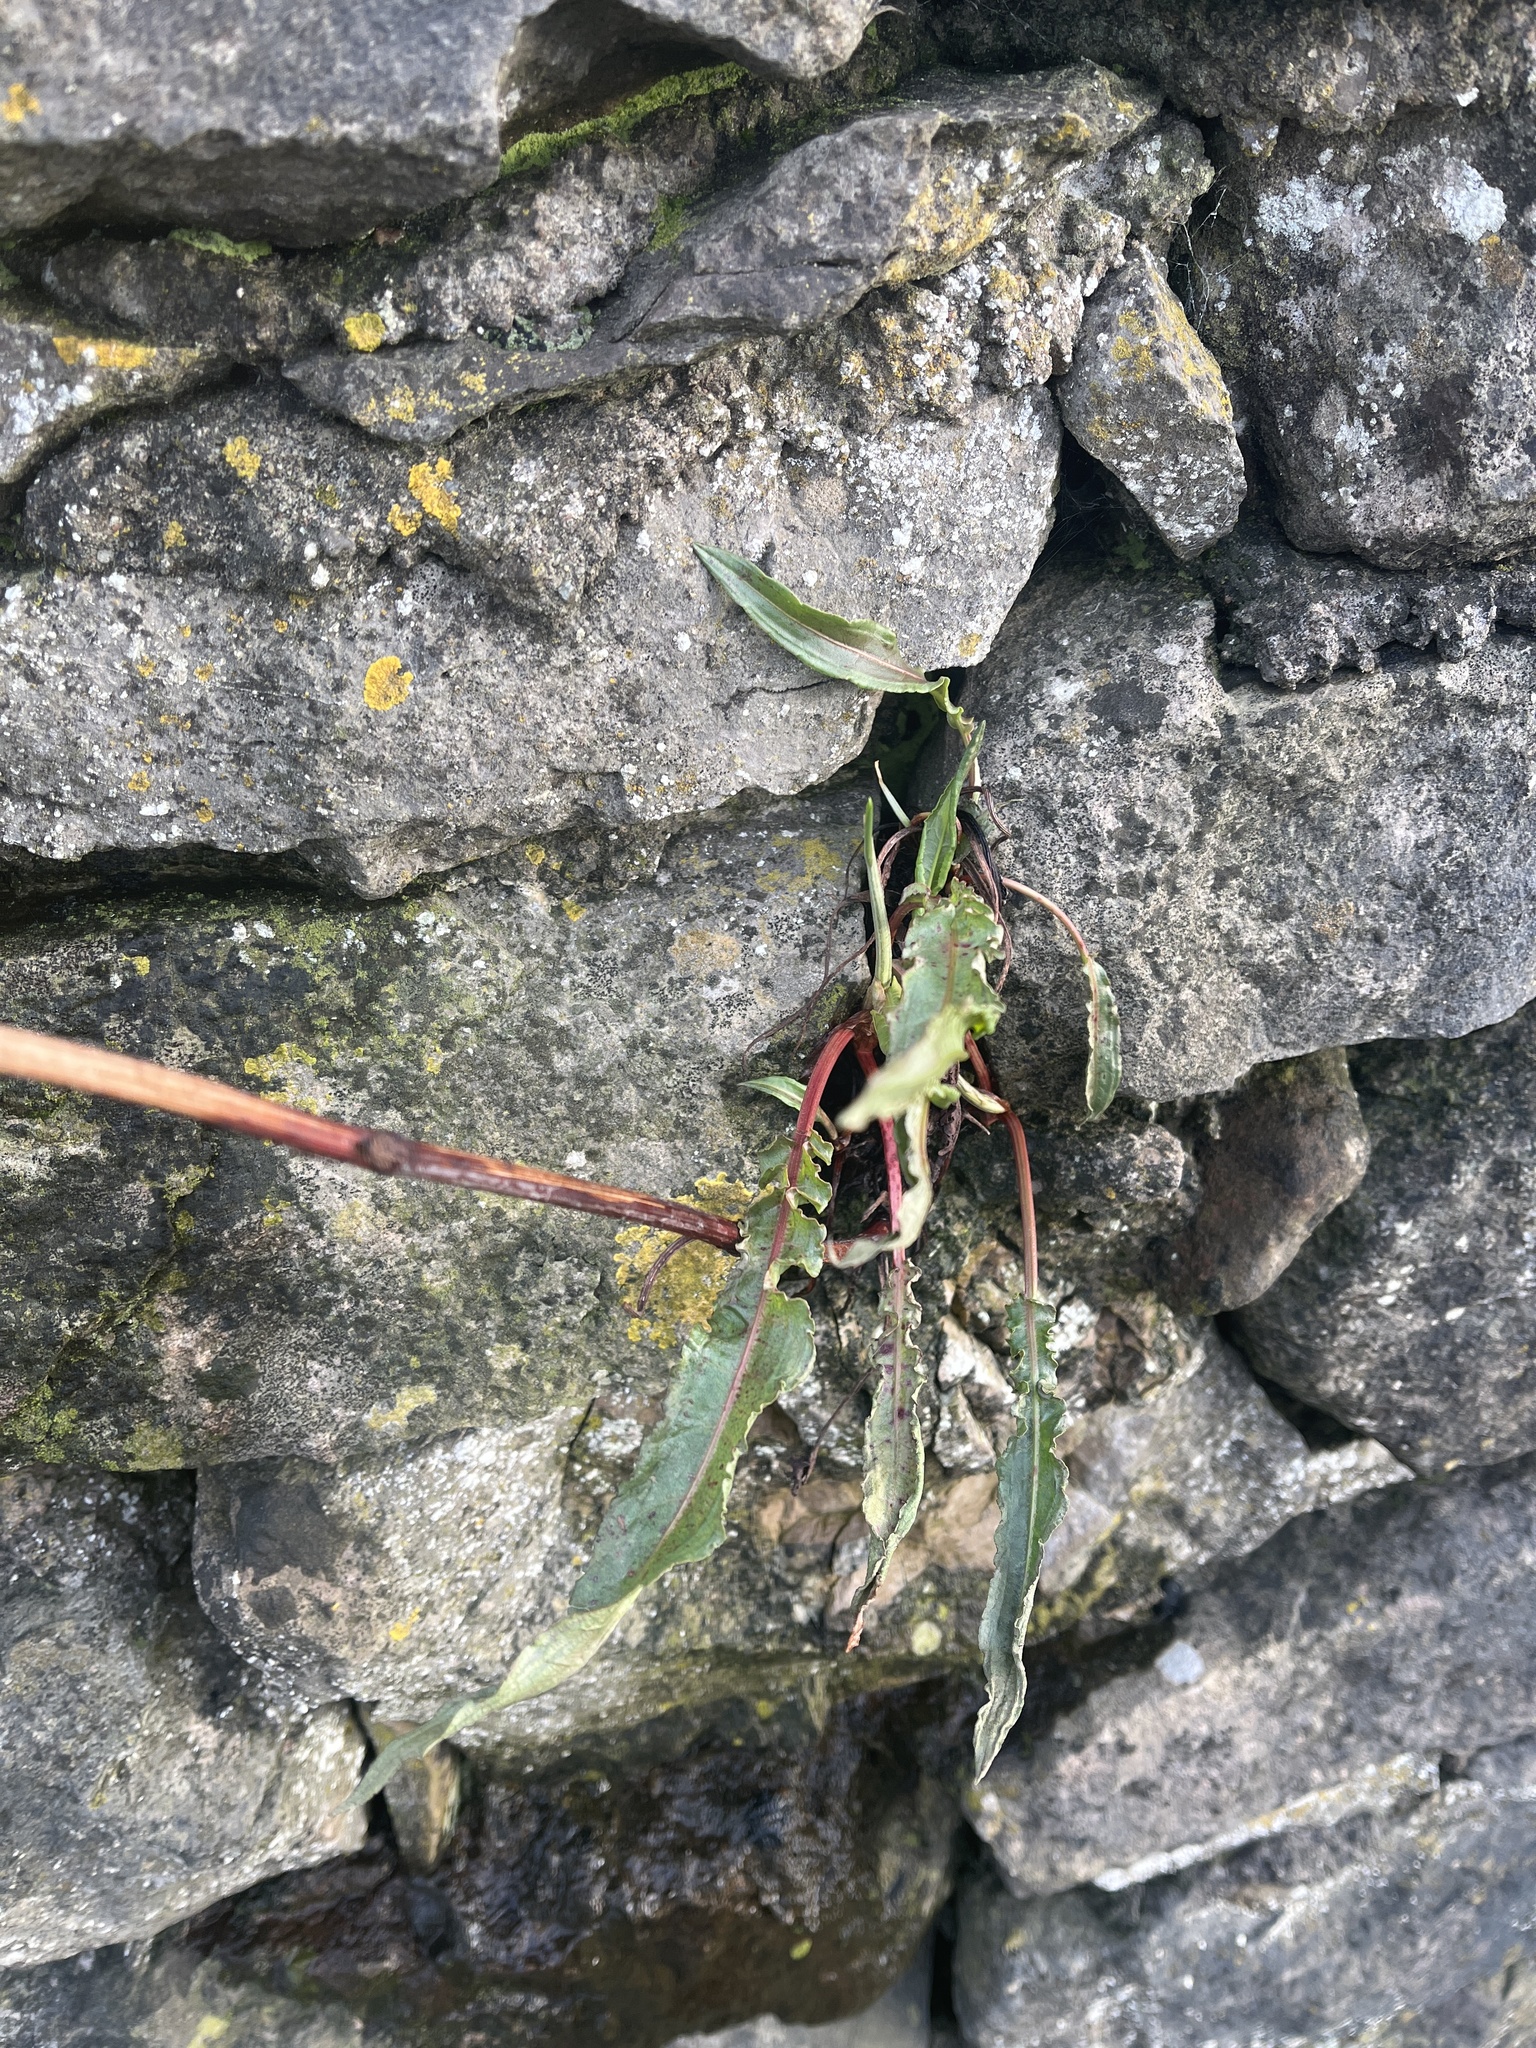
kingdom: Plantae
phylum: Tracheophyta
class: Magnoliopsida
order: Caryophyllales
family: Polygonaceae
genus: Rumex
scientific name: Rumex crispus
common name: Curled dock
